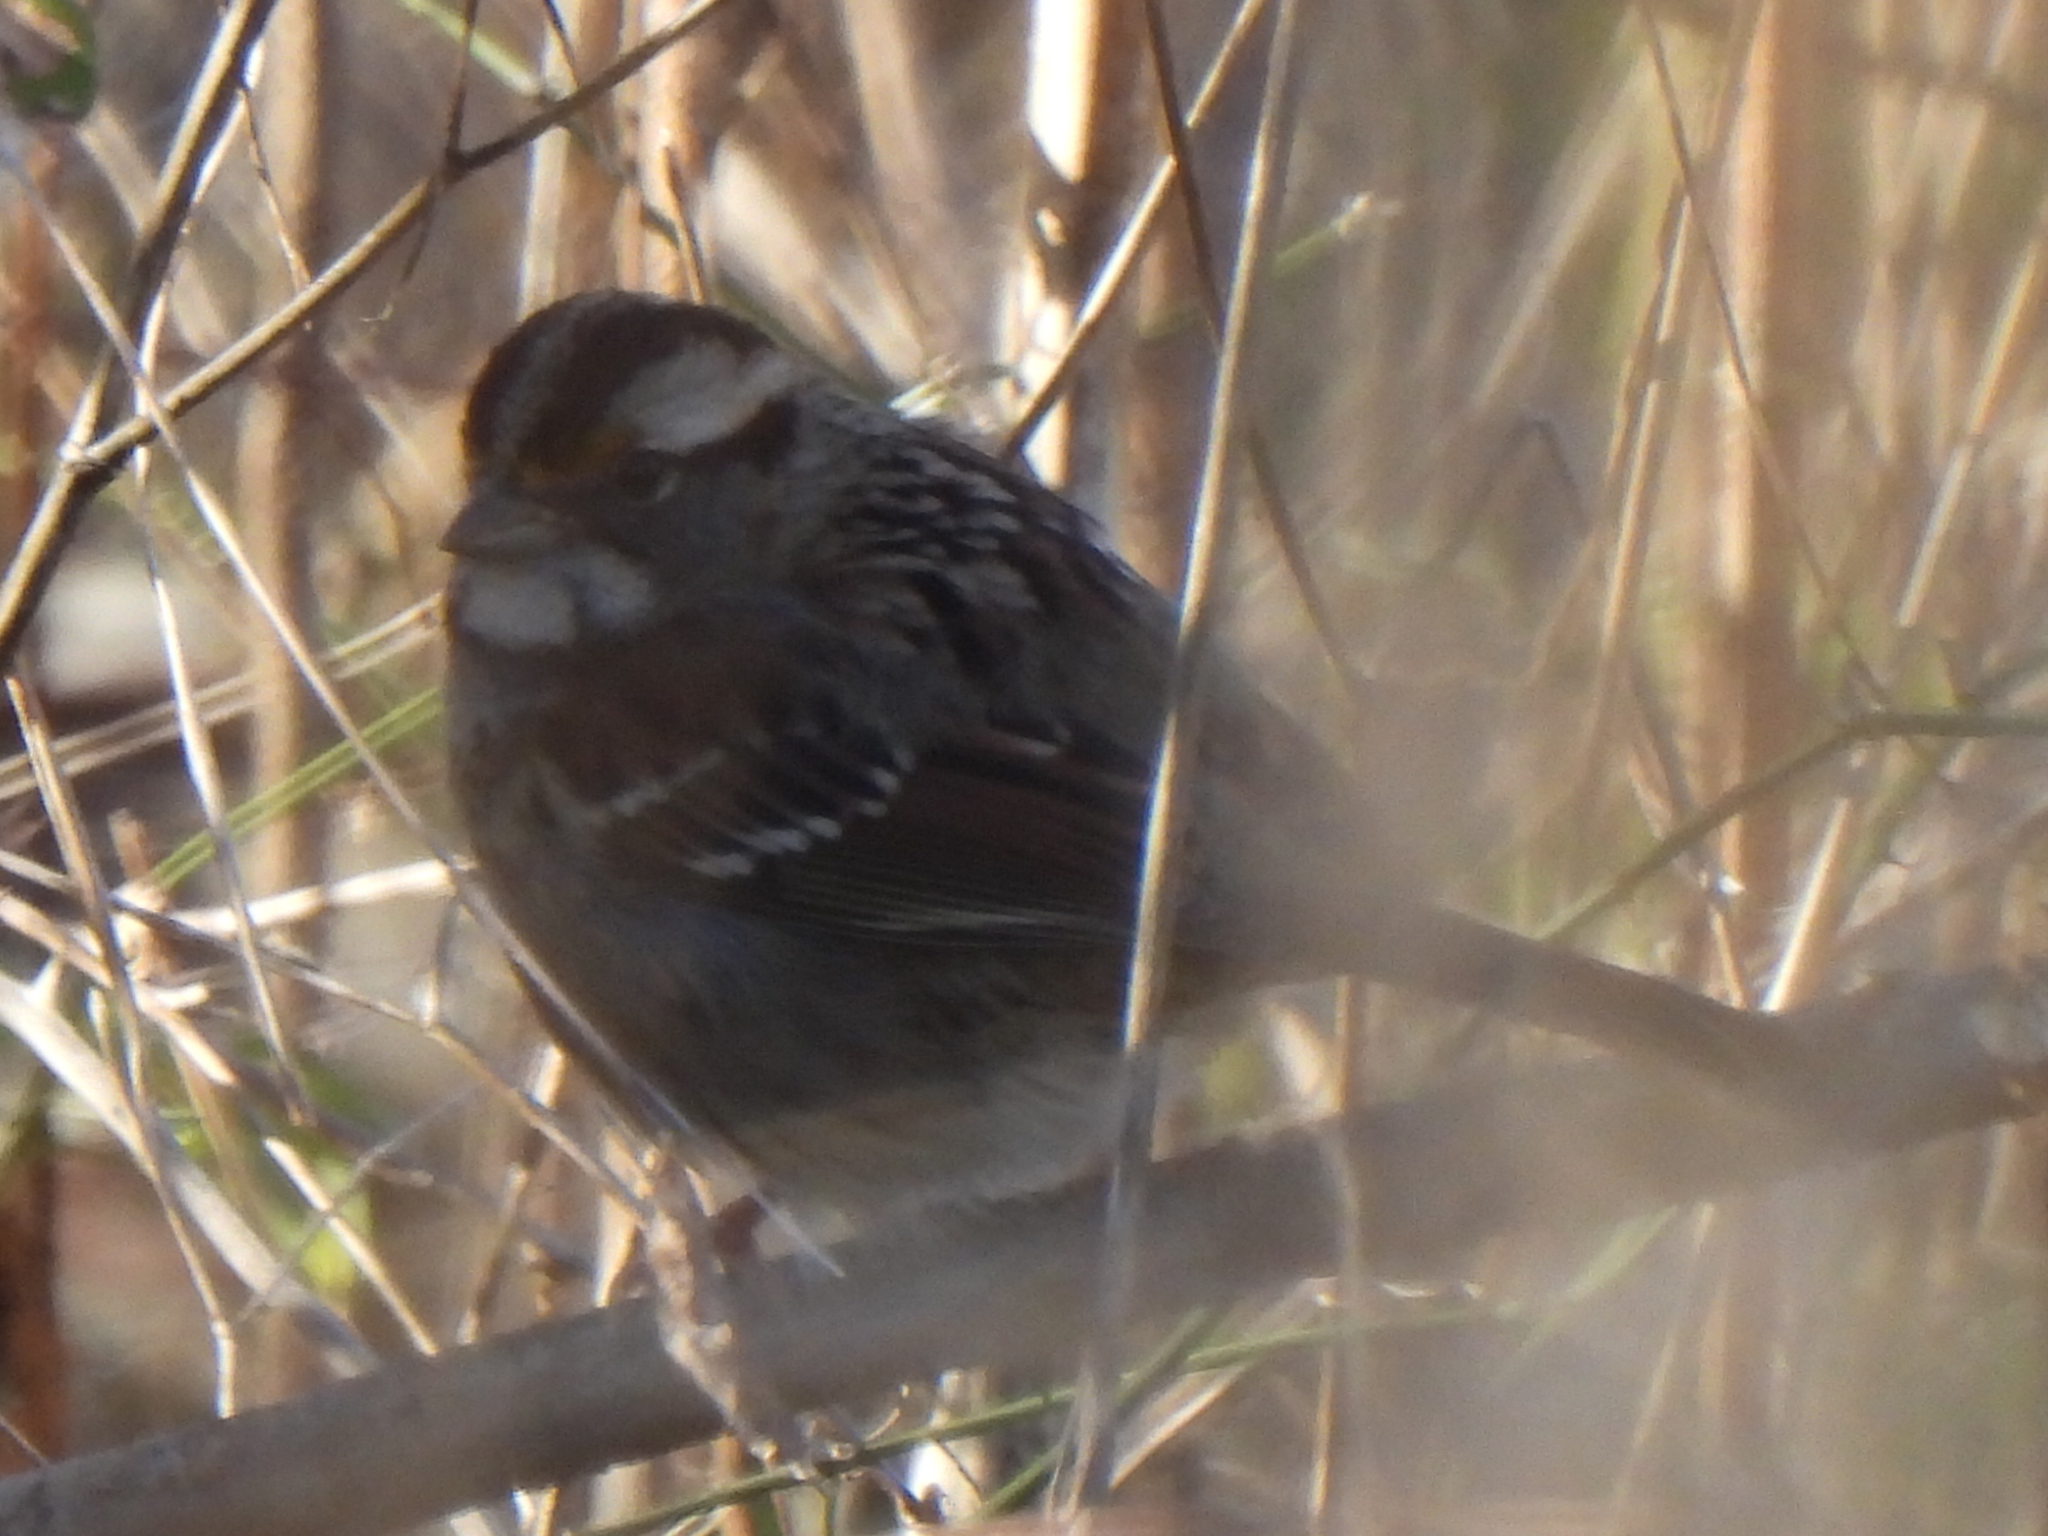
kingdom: Animalia
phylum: Chordata
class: Aves
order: Passeriformes
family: Passerellidae
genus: Zonotrichia
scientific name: Zonotrichia albicollis
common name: White-throated sparrow
